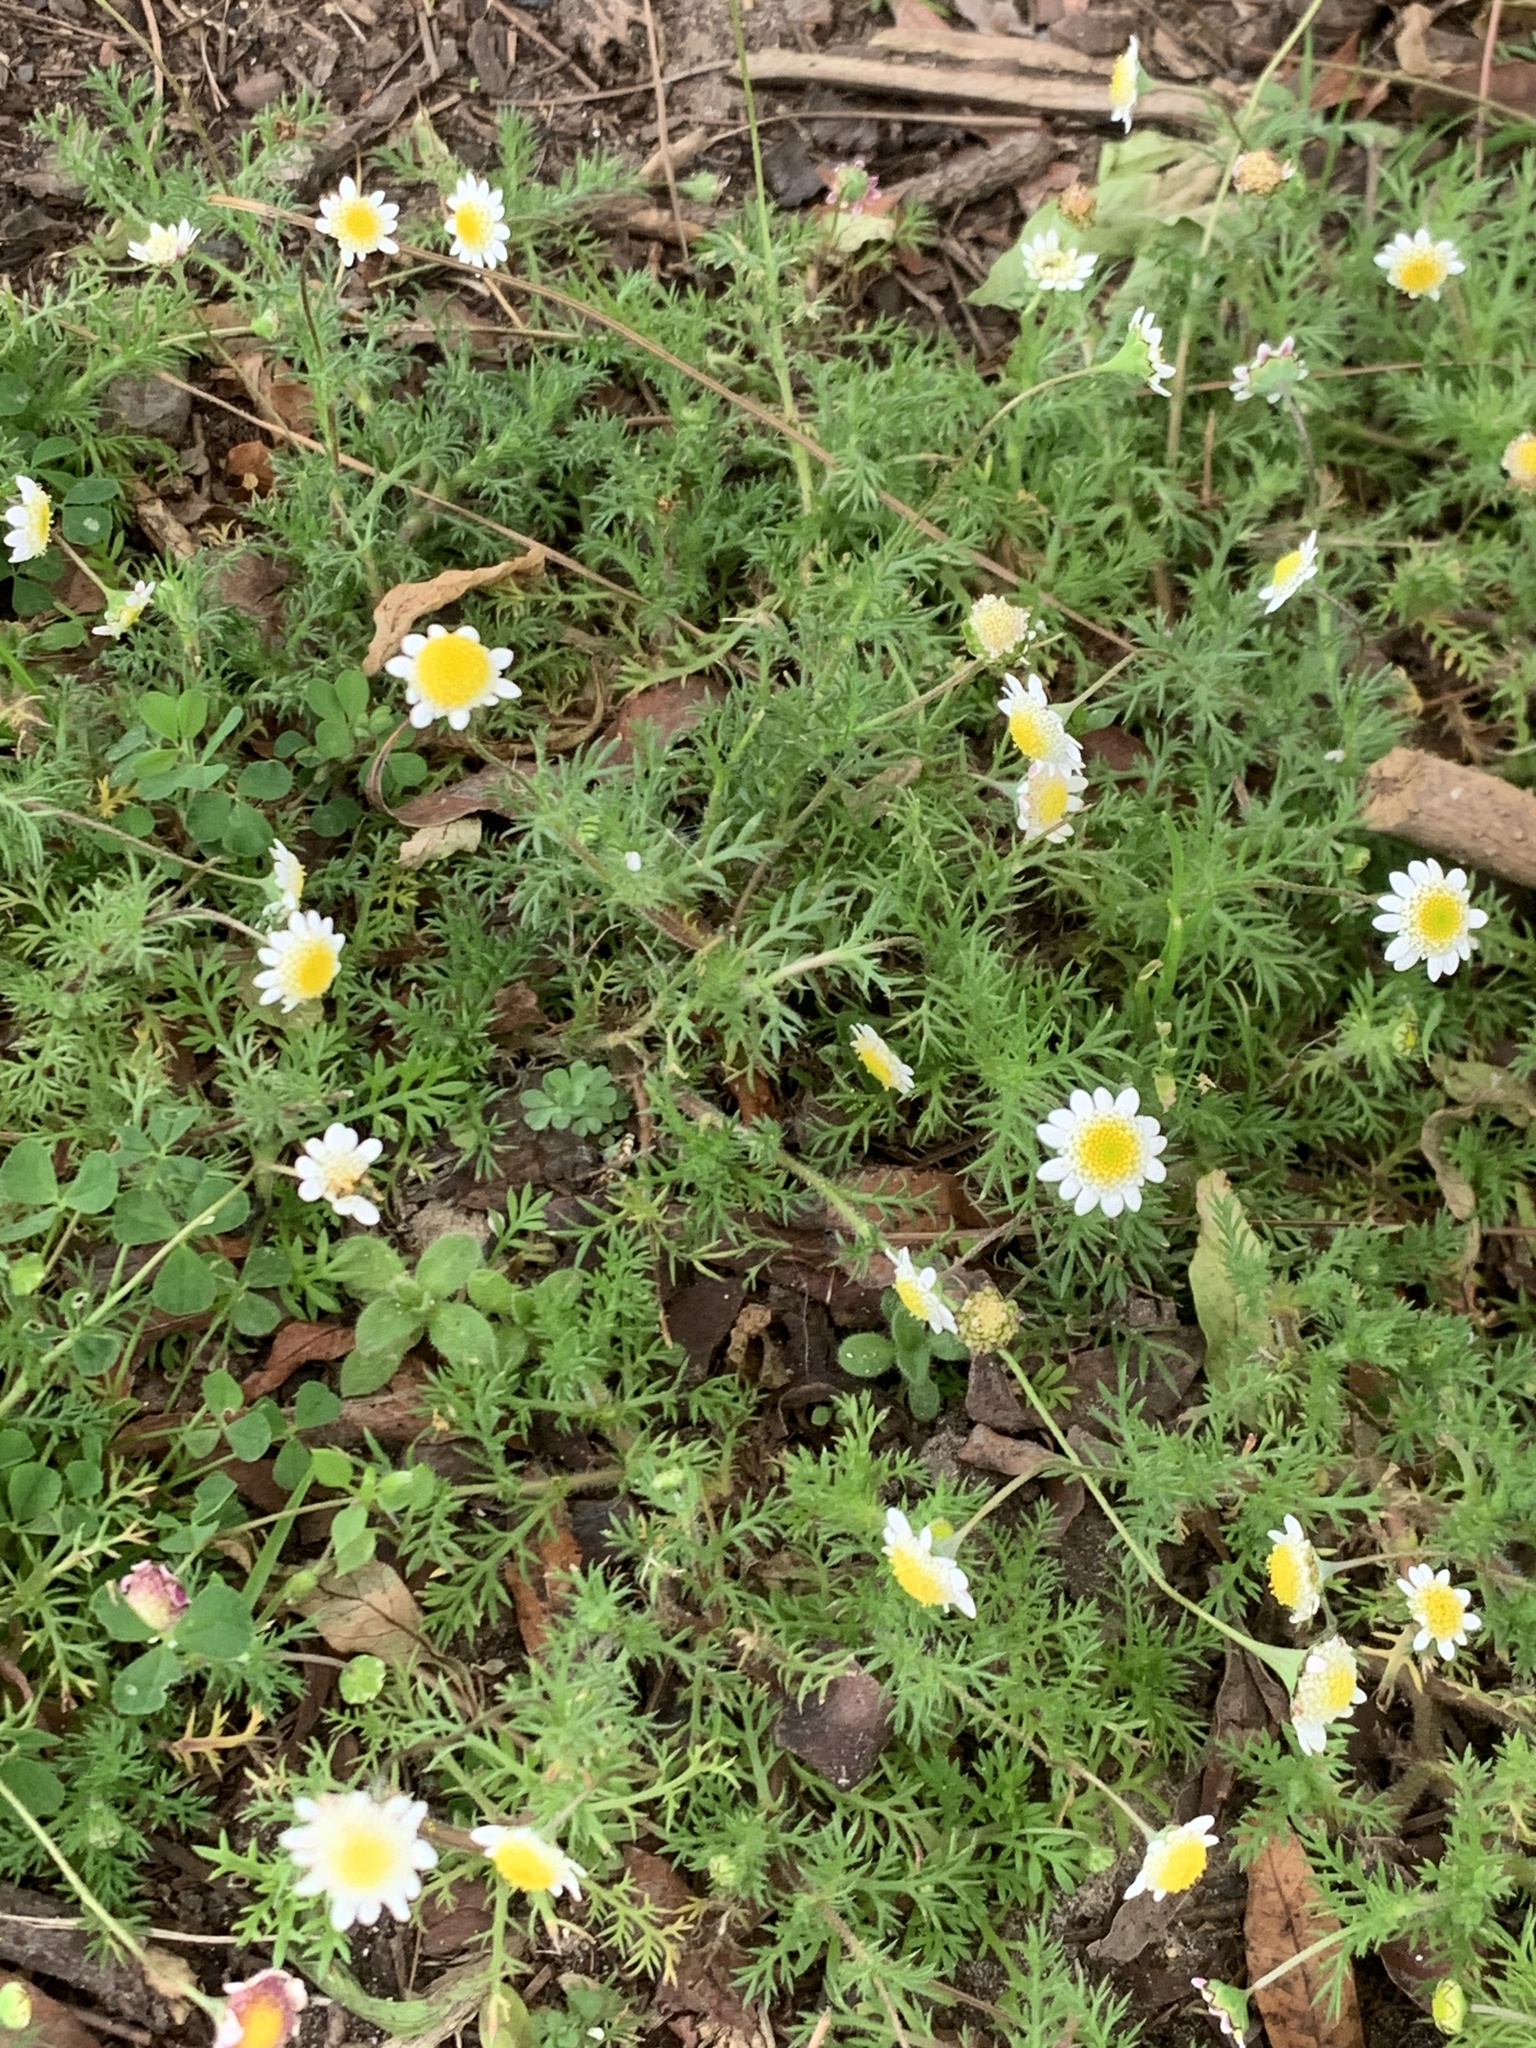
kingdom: Plantae
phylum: Tracheophyta
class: Magnoliopsida
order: Asterales
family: Asteraceae
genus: Cotula
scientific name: Cotula turbinata
